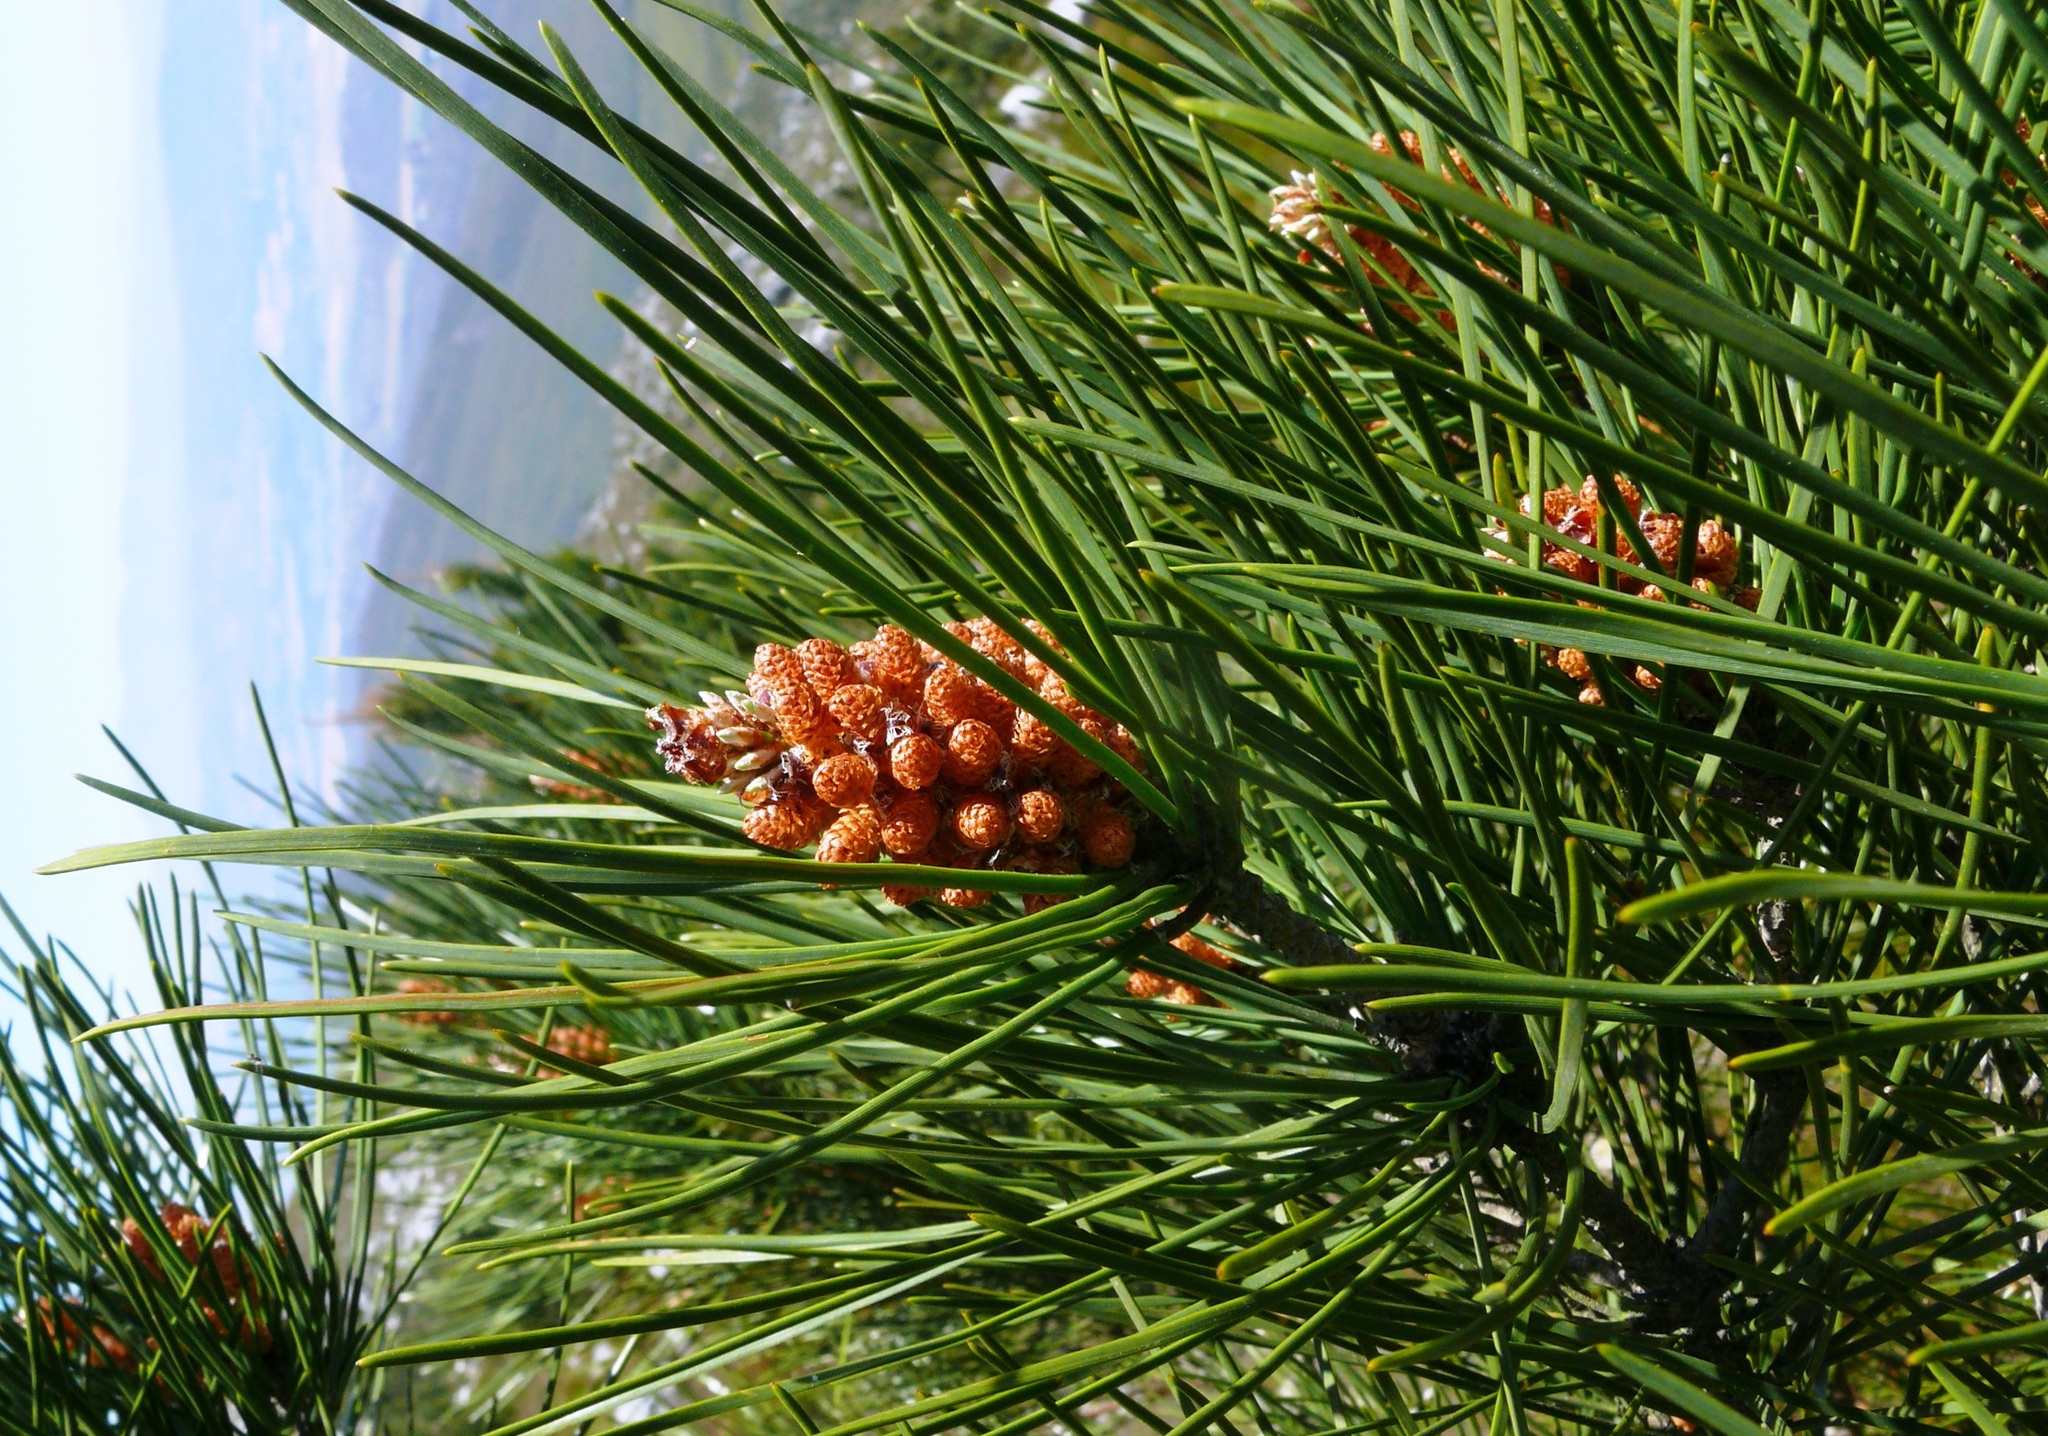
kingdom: Plantae
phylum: Tracheophyta
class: Pinopsida
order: Pinales
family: Pinaceae
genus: Pinus
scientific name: Pinus pinaster
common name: Maritime pine
